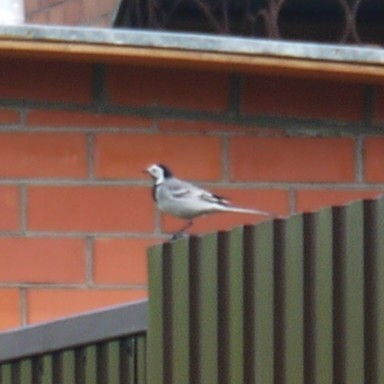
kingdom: Animalia
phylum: Chordata
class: Aves
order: Passeriformes
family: Motacillidae
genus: Motacilla
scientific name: Motacilla alba
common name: White wagtail
